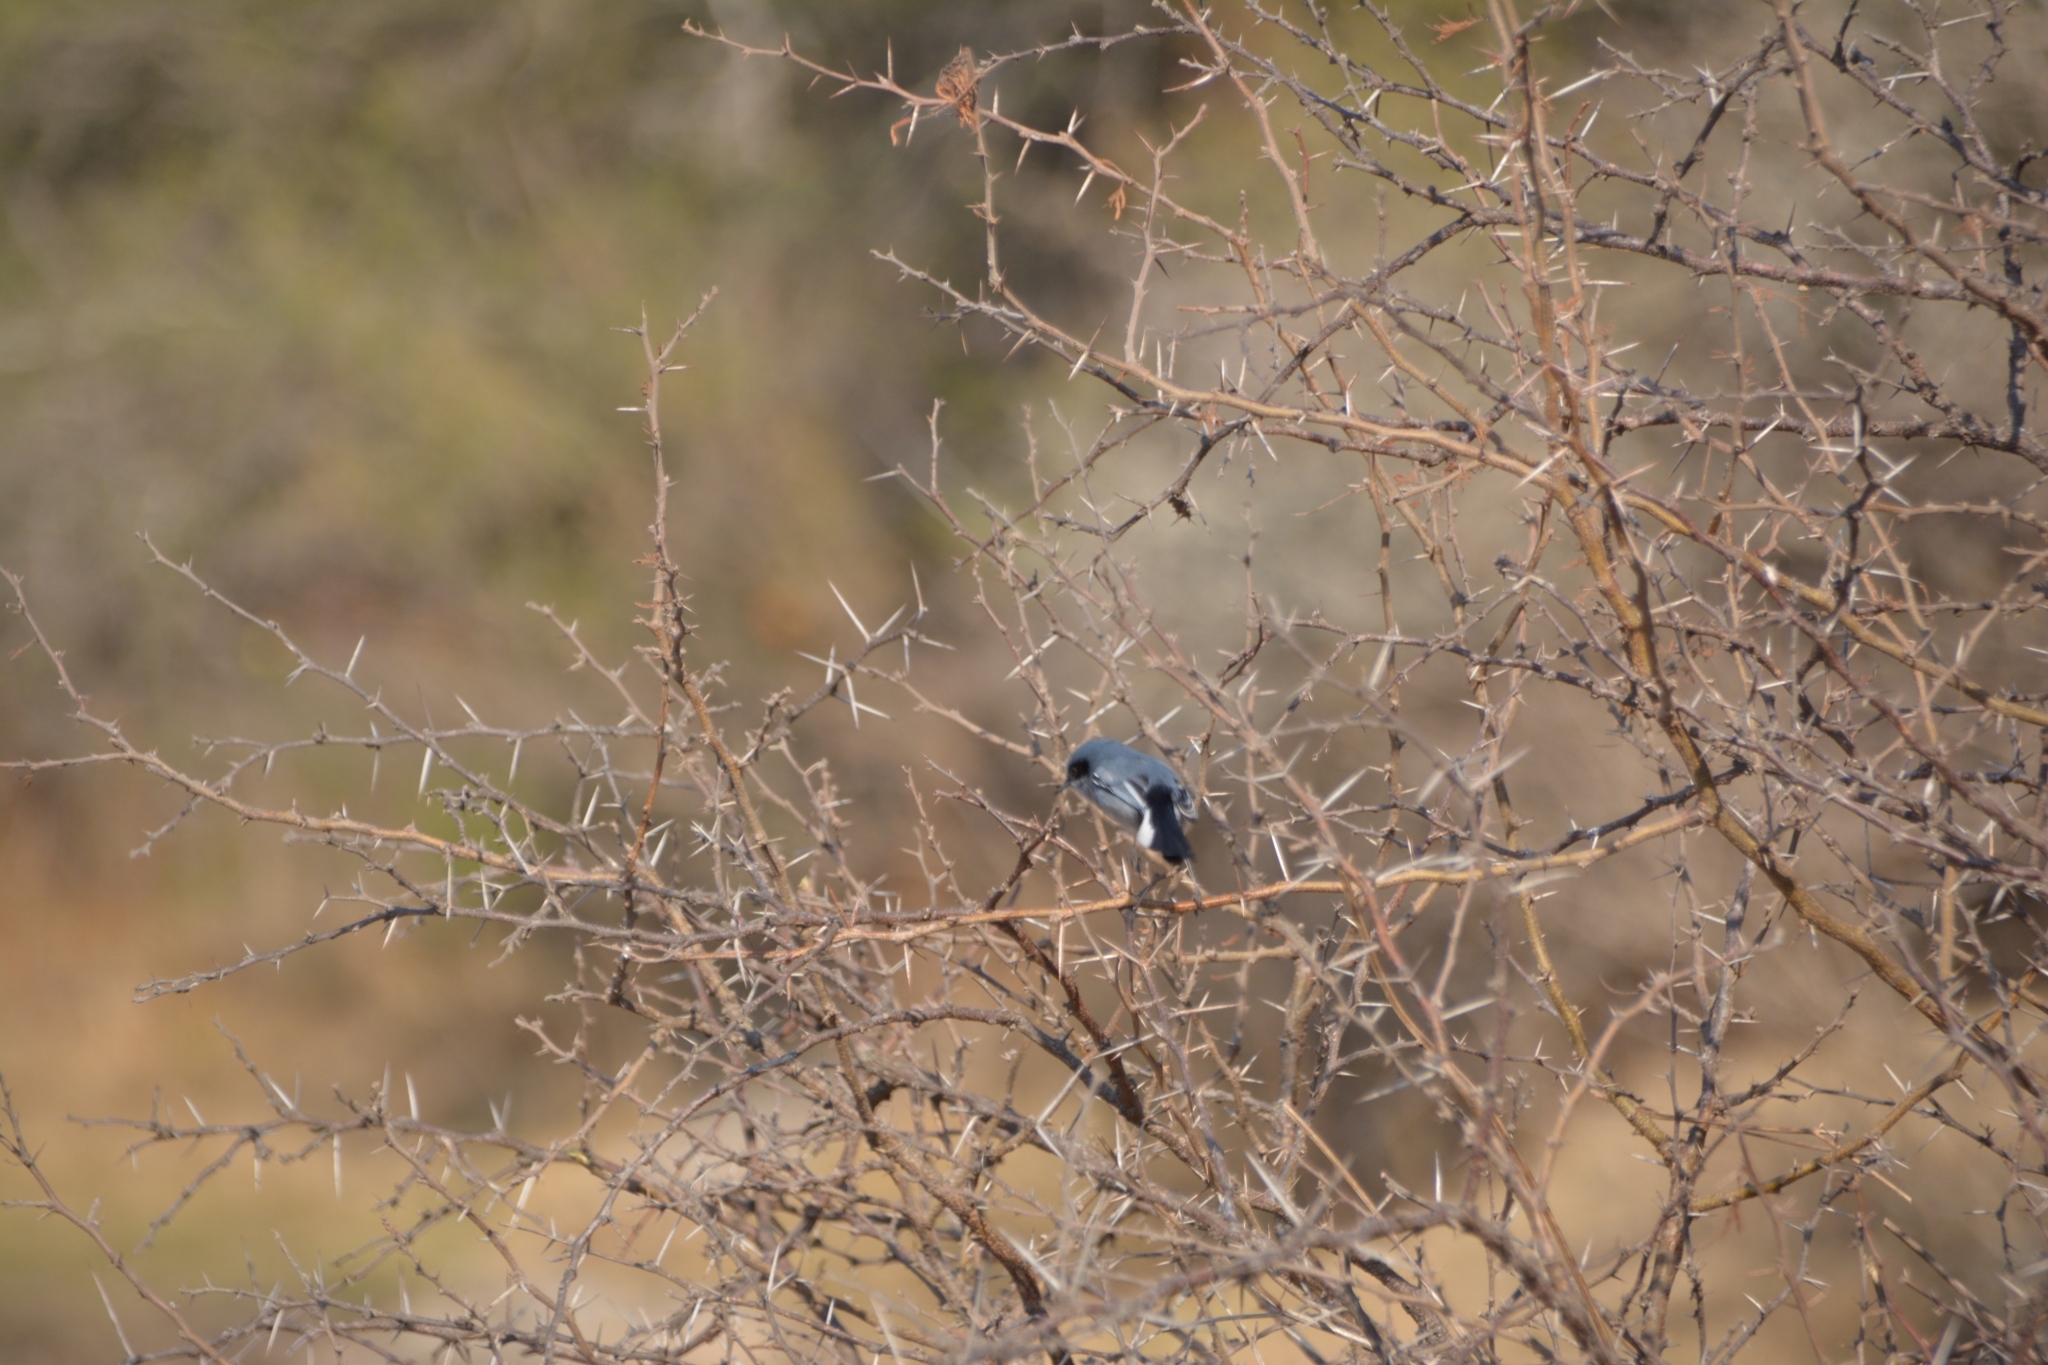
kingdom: Animalia
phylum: Chordata
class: Aves
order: Passeriformes
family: Polioptilidae
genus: Polioptila
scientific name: Polioptila dumicola
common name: Masked gnatcatcher
